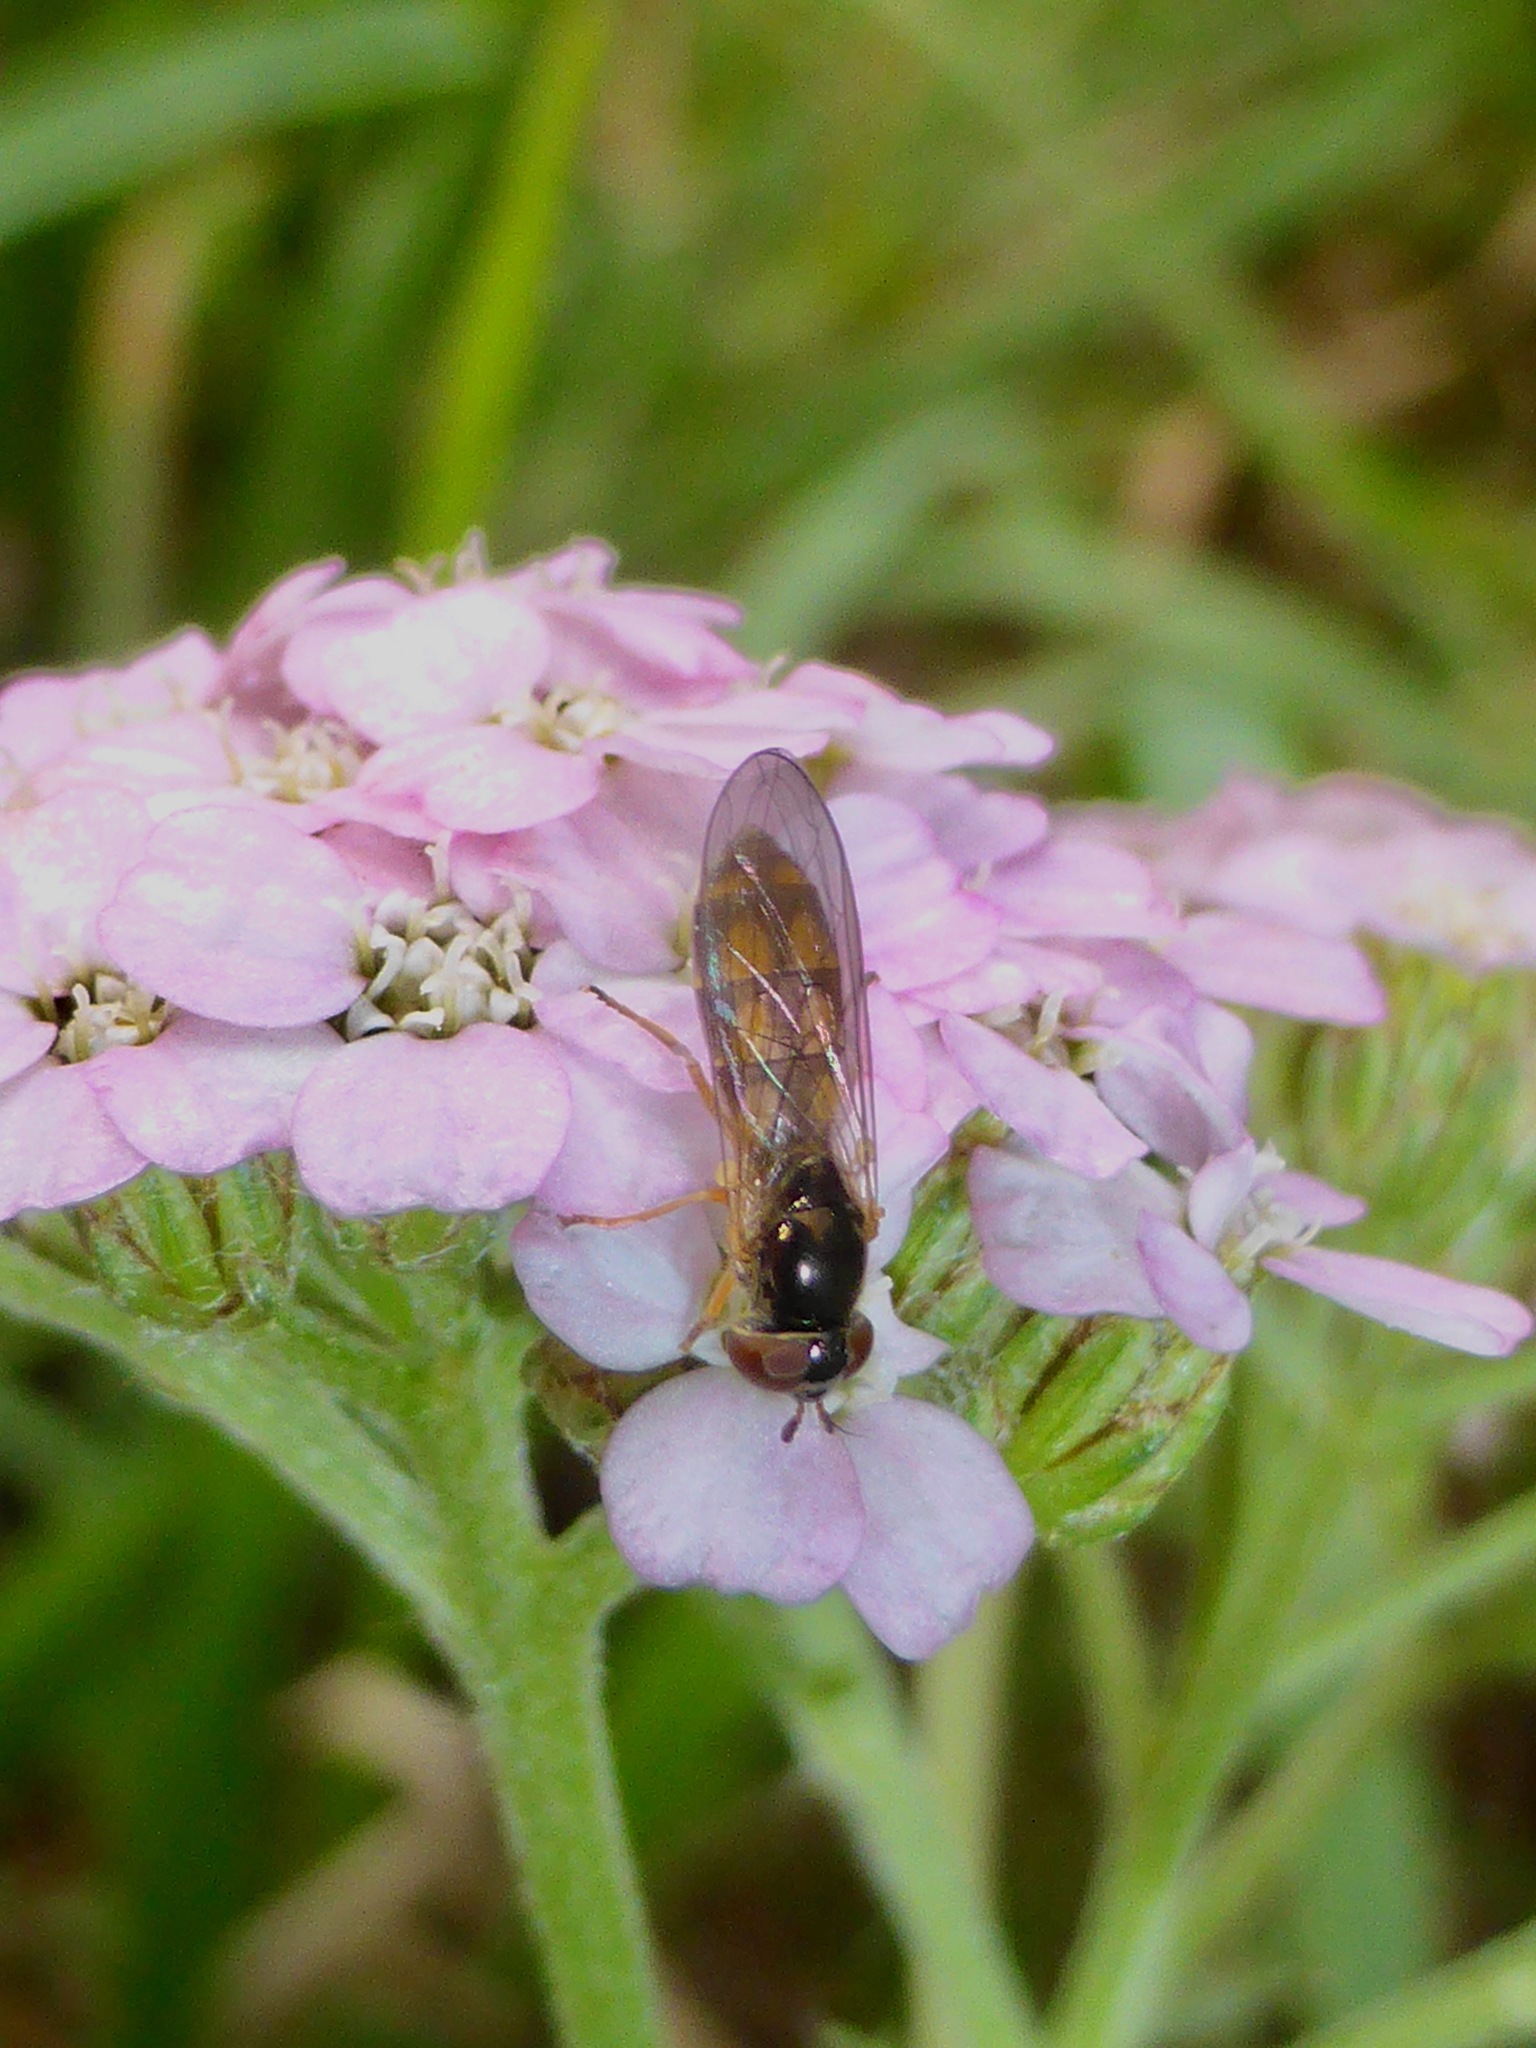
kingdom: Animalia
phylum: Arthropoda
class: Insecta
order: Diptera
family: Syrphidae
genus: Melanostoma
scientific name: Melanostoma fasciatum
